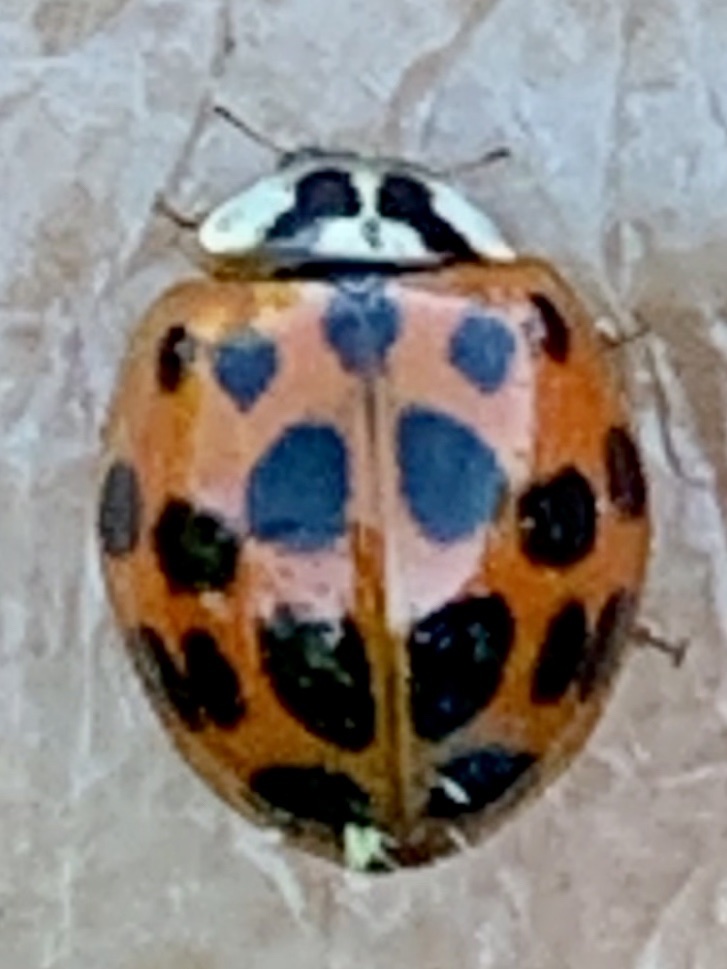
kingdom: Animalia
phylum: Arthropoda
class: Insecta
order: Coleoptera
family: Coccinellidae
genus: Harmonia
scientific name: Harmonia axyridis
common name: Harlequin ladybird
